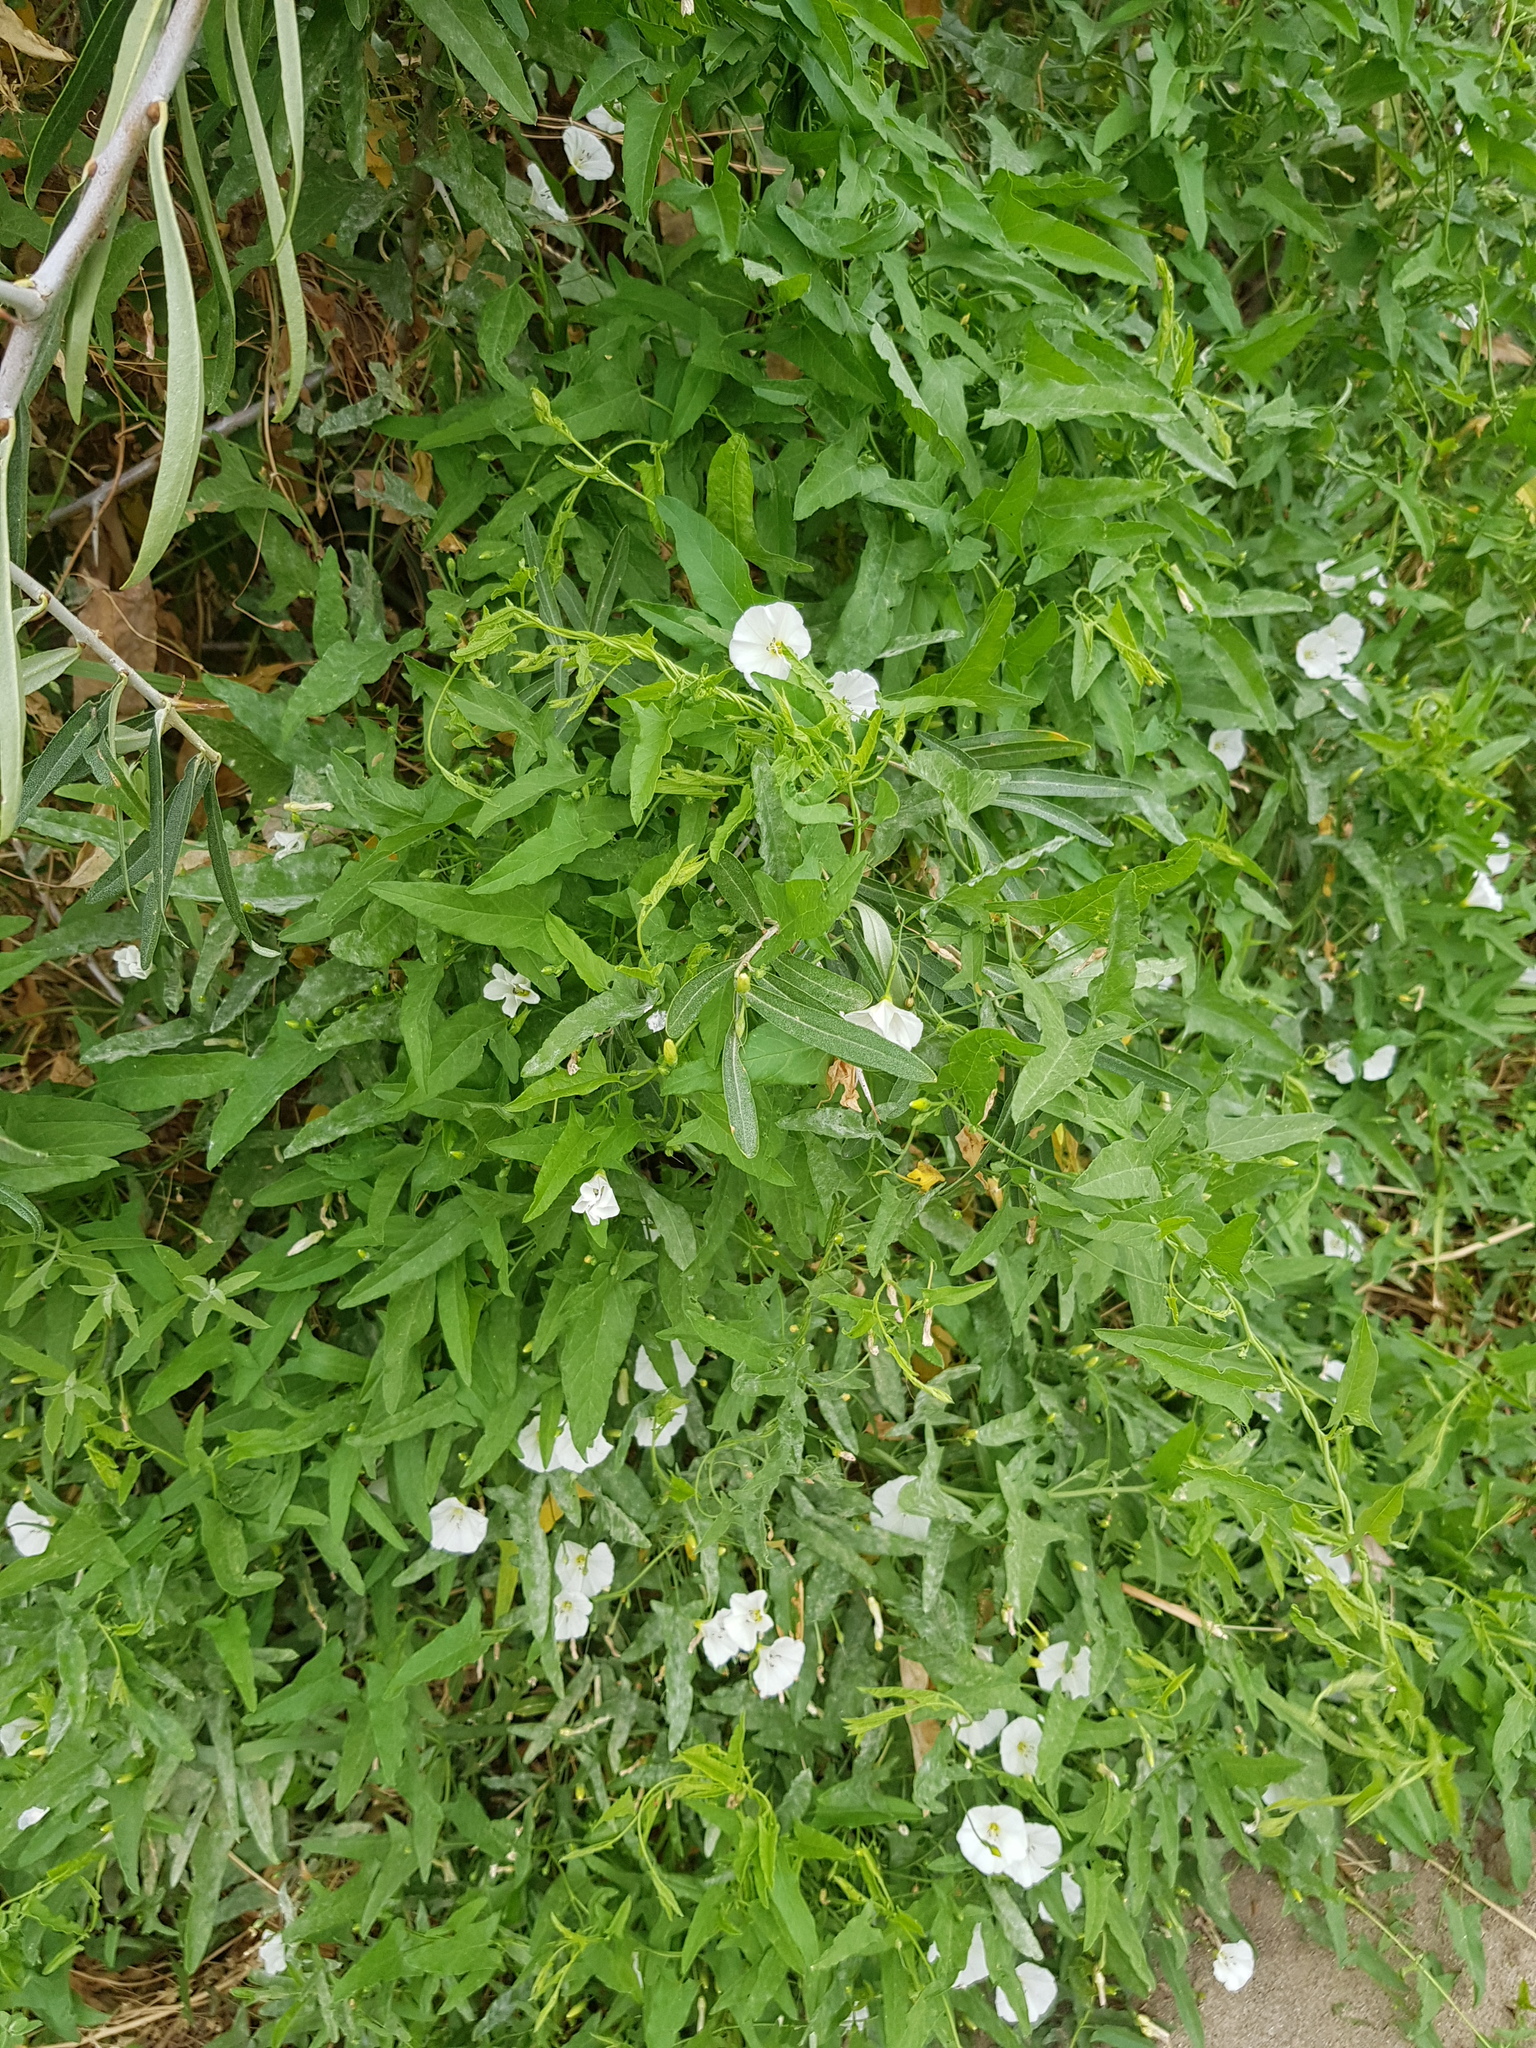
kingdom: Plantae
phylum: Tracheophyta
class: Magnoliopsida
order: Solanales
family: Convolvulaceae
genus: Convolvulus
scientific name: Convolvulus arvensis
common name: Field bindweed
